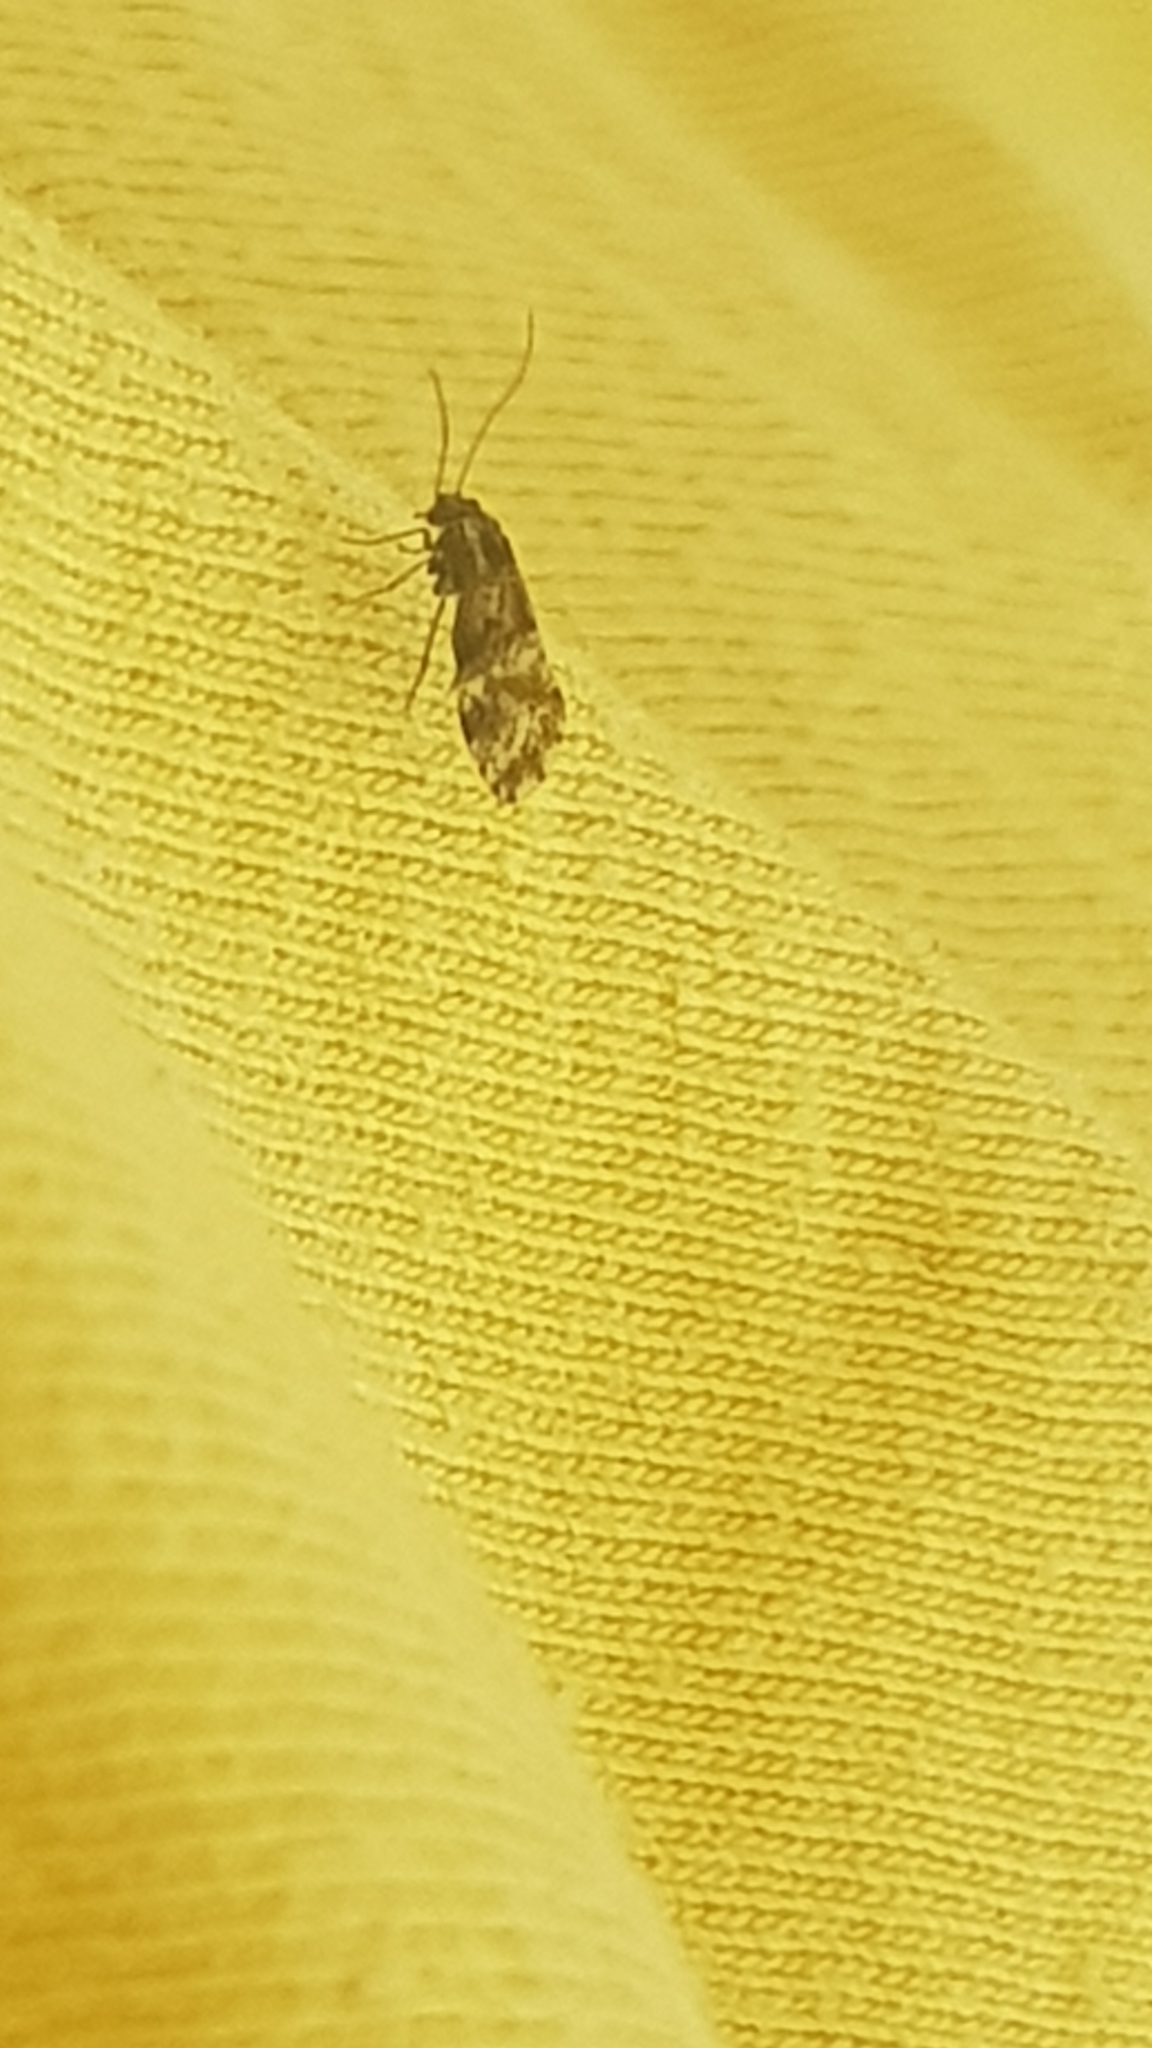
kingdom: Animalia
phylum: Arthropoda
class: Insecta
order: Psocodea
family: Psocidae
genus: Loensia
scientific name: Loensia fasciata
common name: Common bark louse
